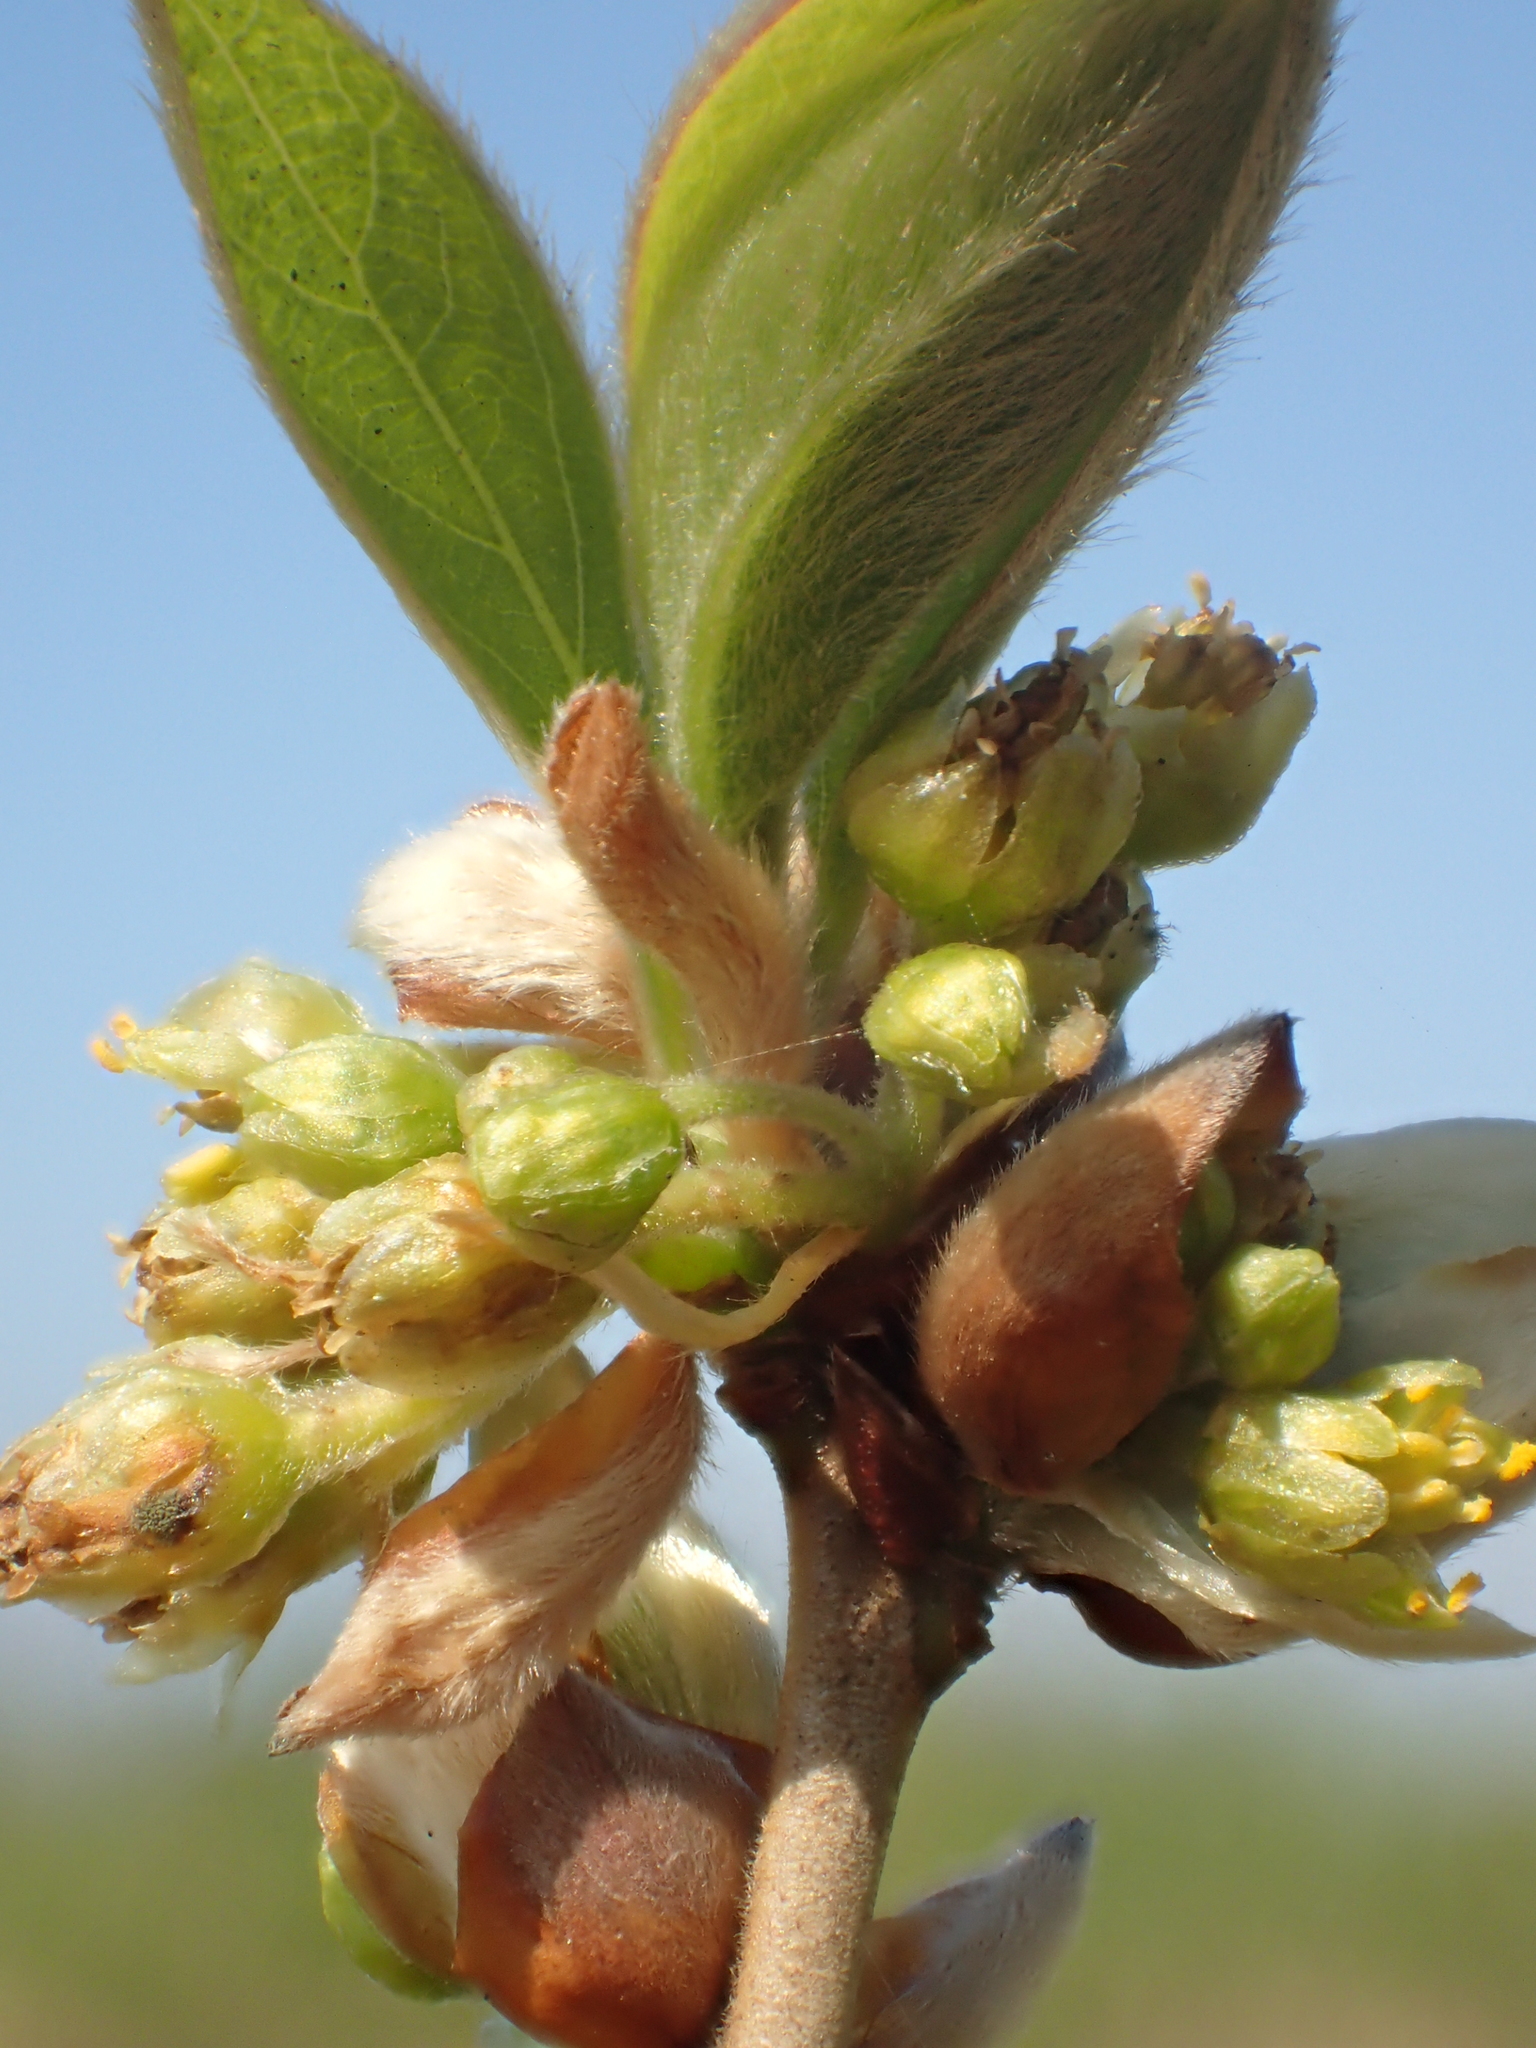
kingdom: Plantae
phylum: Tracheophyta
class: Magnoliopsida
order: Laurales
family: Lauraceae
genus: Lindera
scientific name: Lindera glauca
